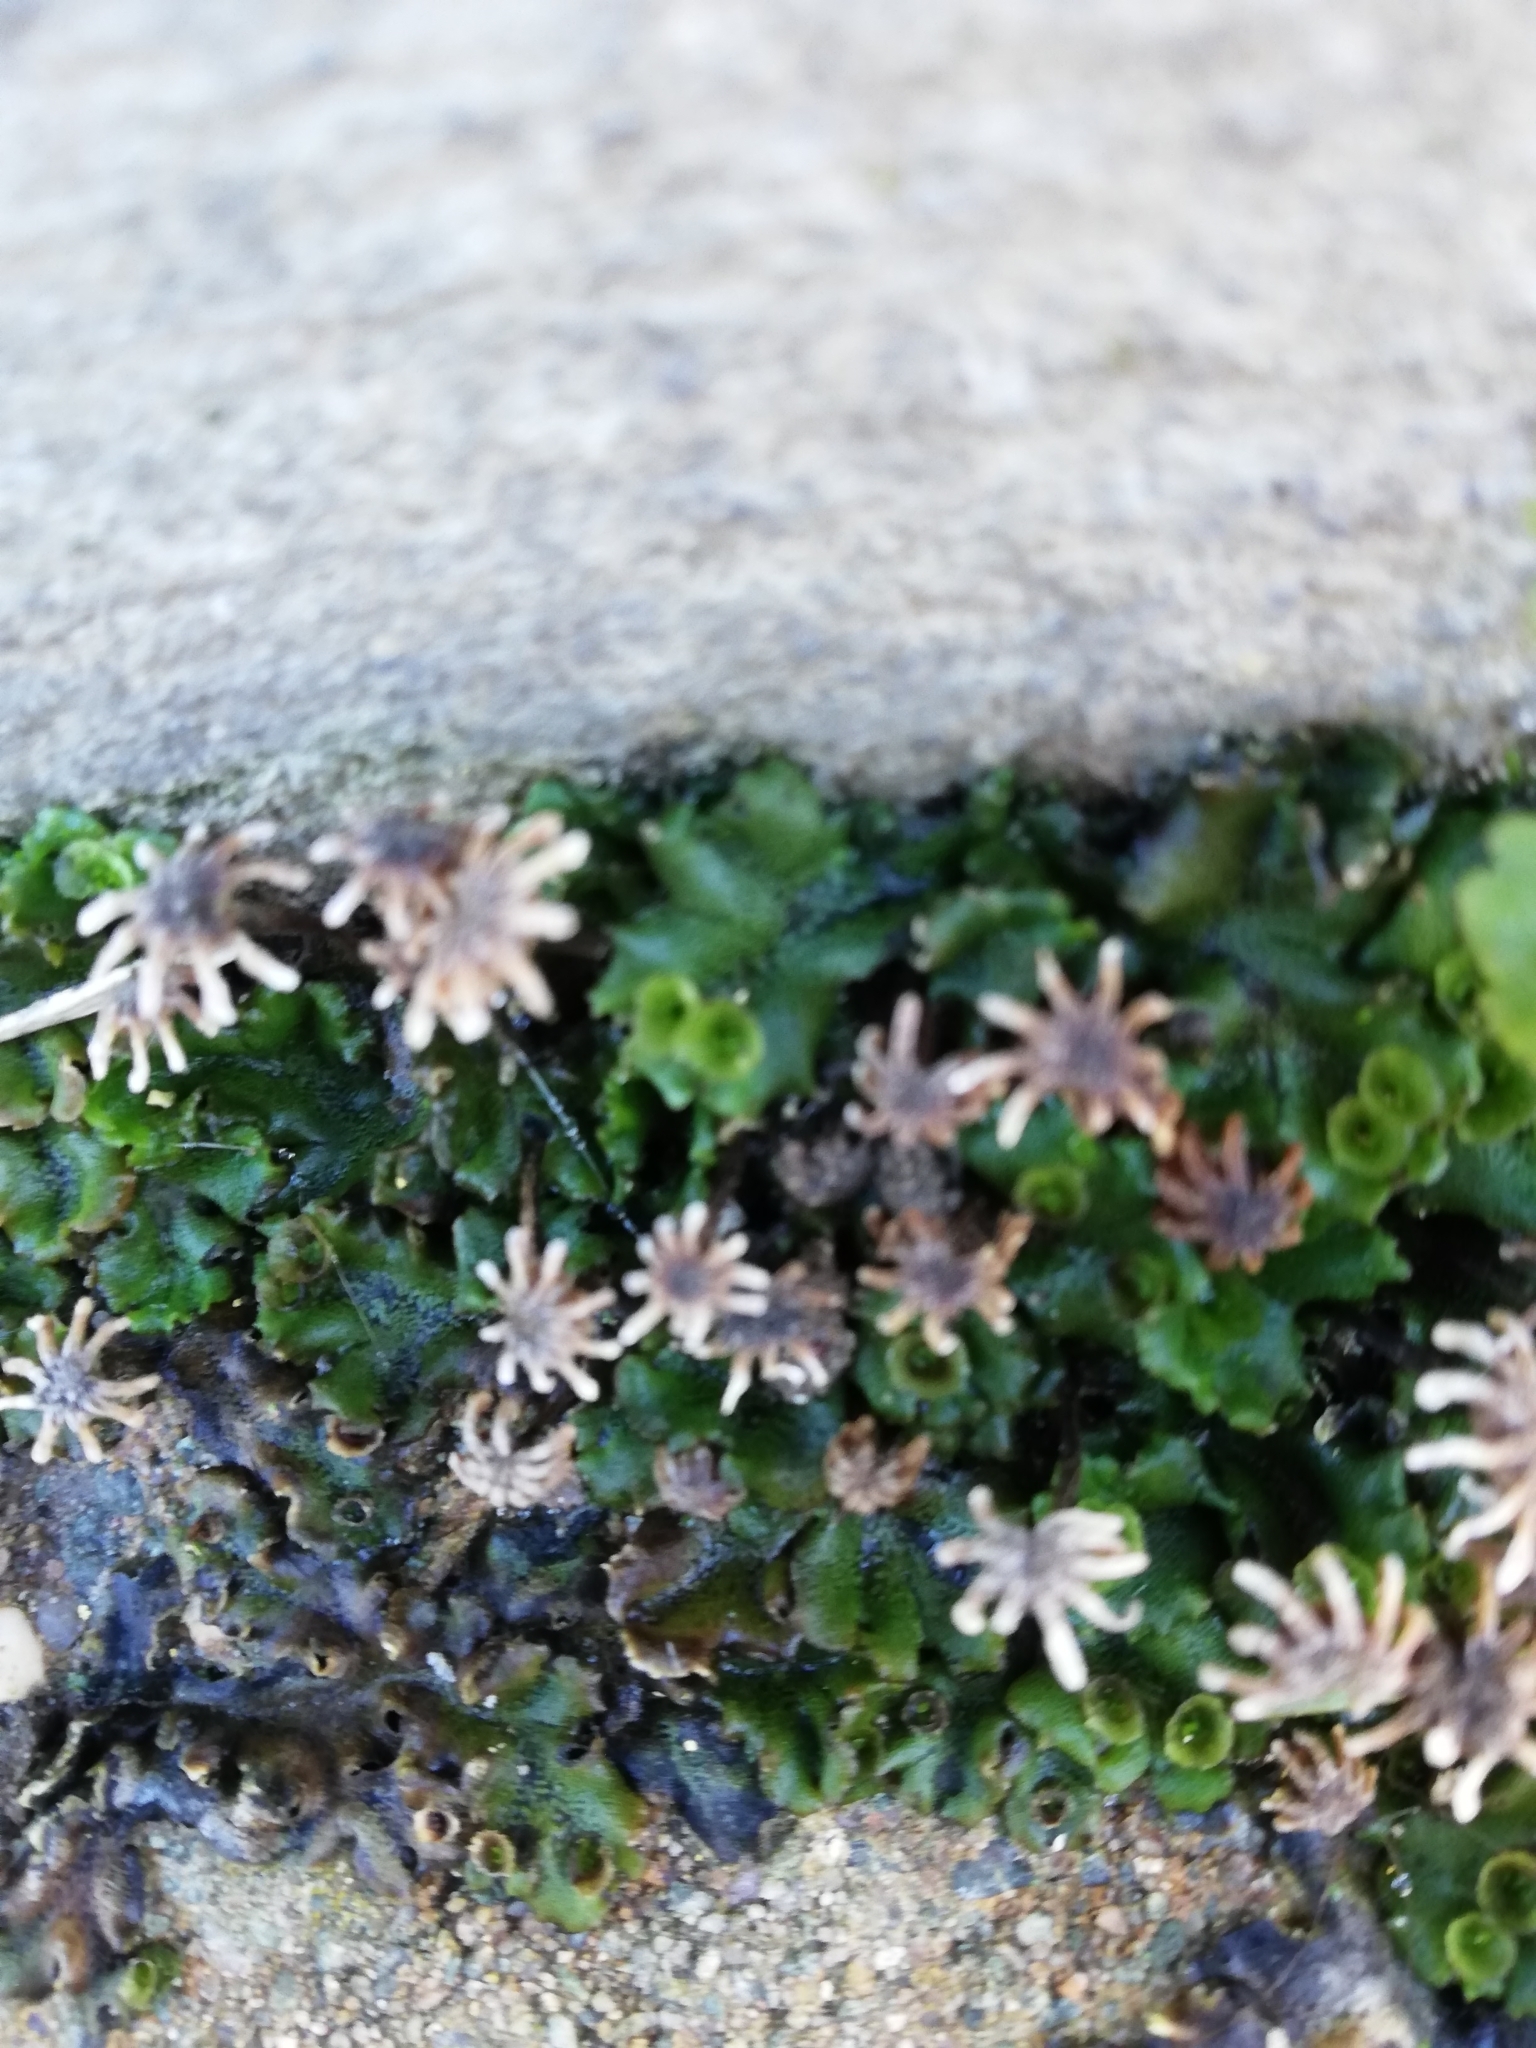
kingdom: Plantae
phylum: Marchantiophyta
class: Marchantiopsida
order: Marchantiales
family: Marchantiaceae
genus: Marchantia
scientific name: Marchantia polymorpha
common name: Common liverwort
